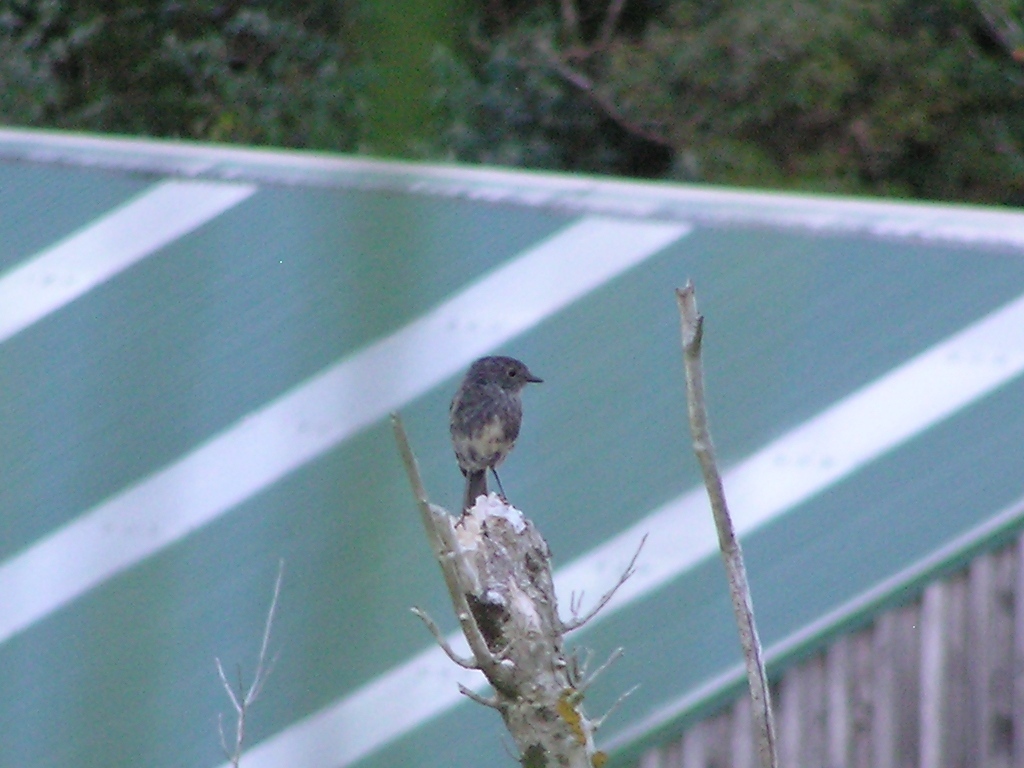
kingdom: Animalia
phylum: Chordata
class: Aves
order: Passeriformes
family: Petroicidae
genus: Petroica
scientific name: Petroica australis
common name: New zealand robin
